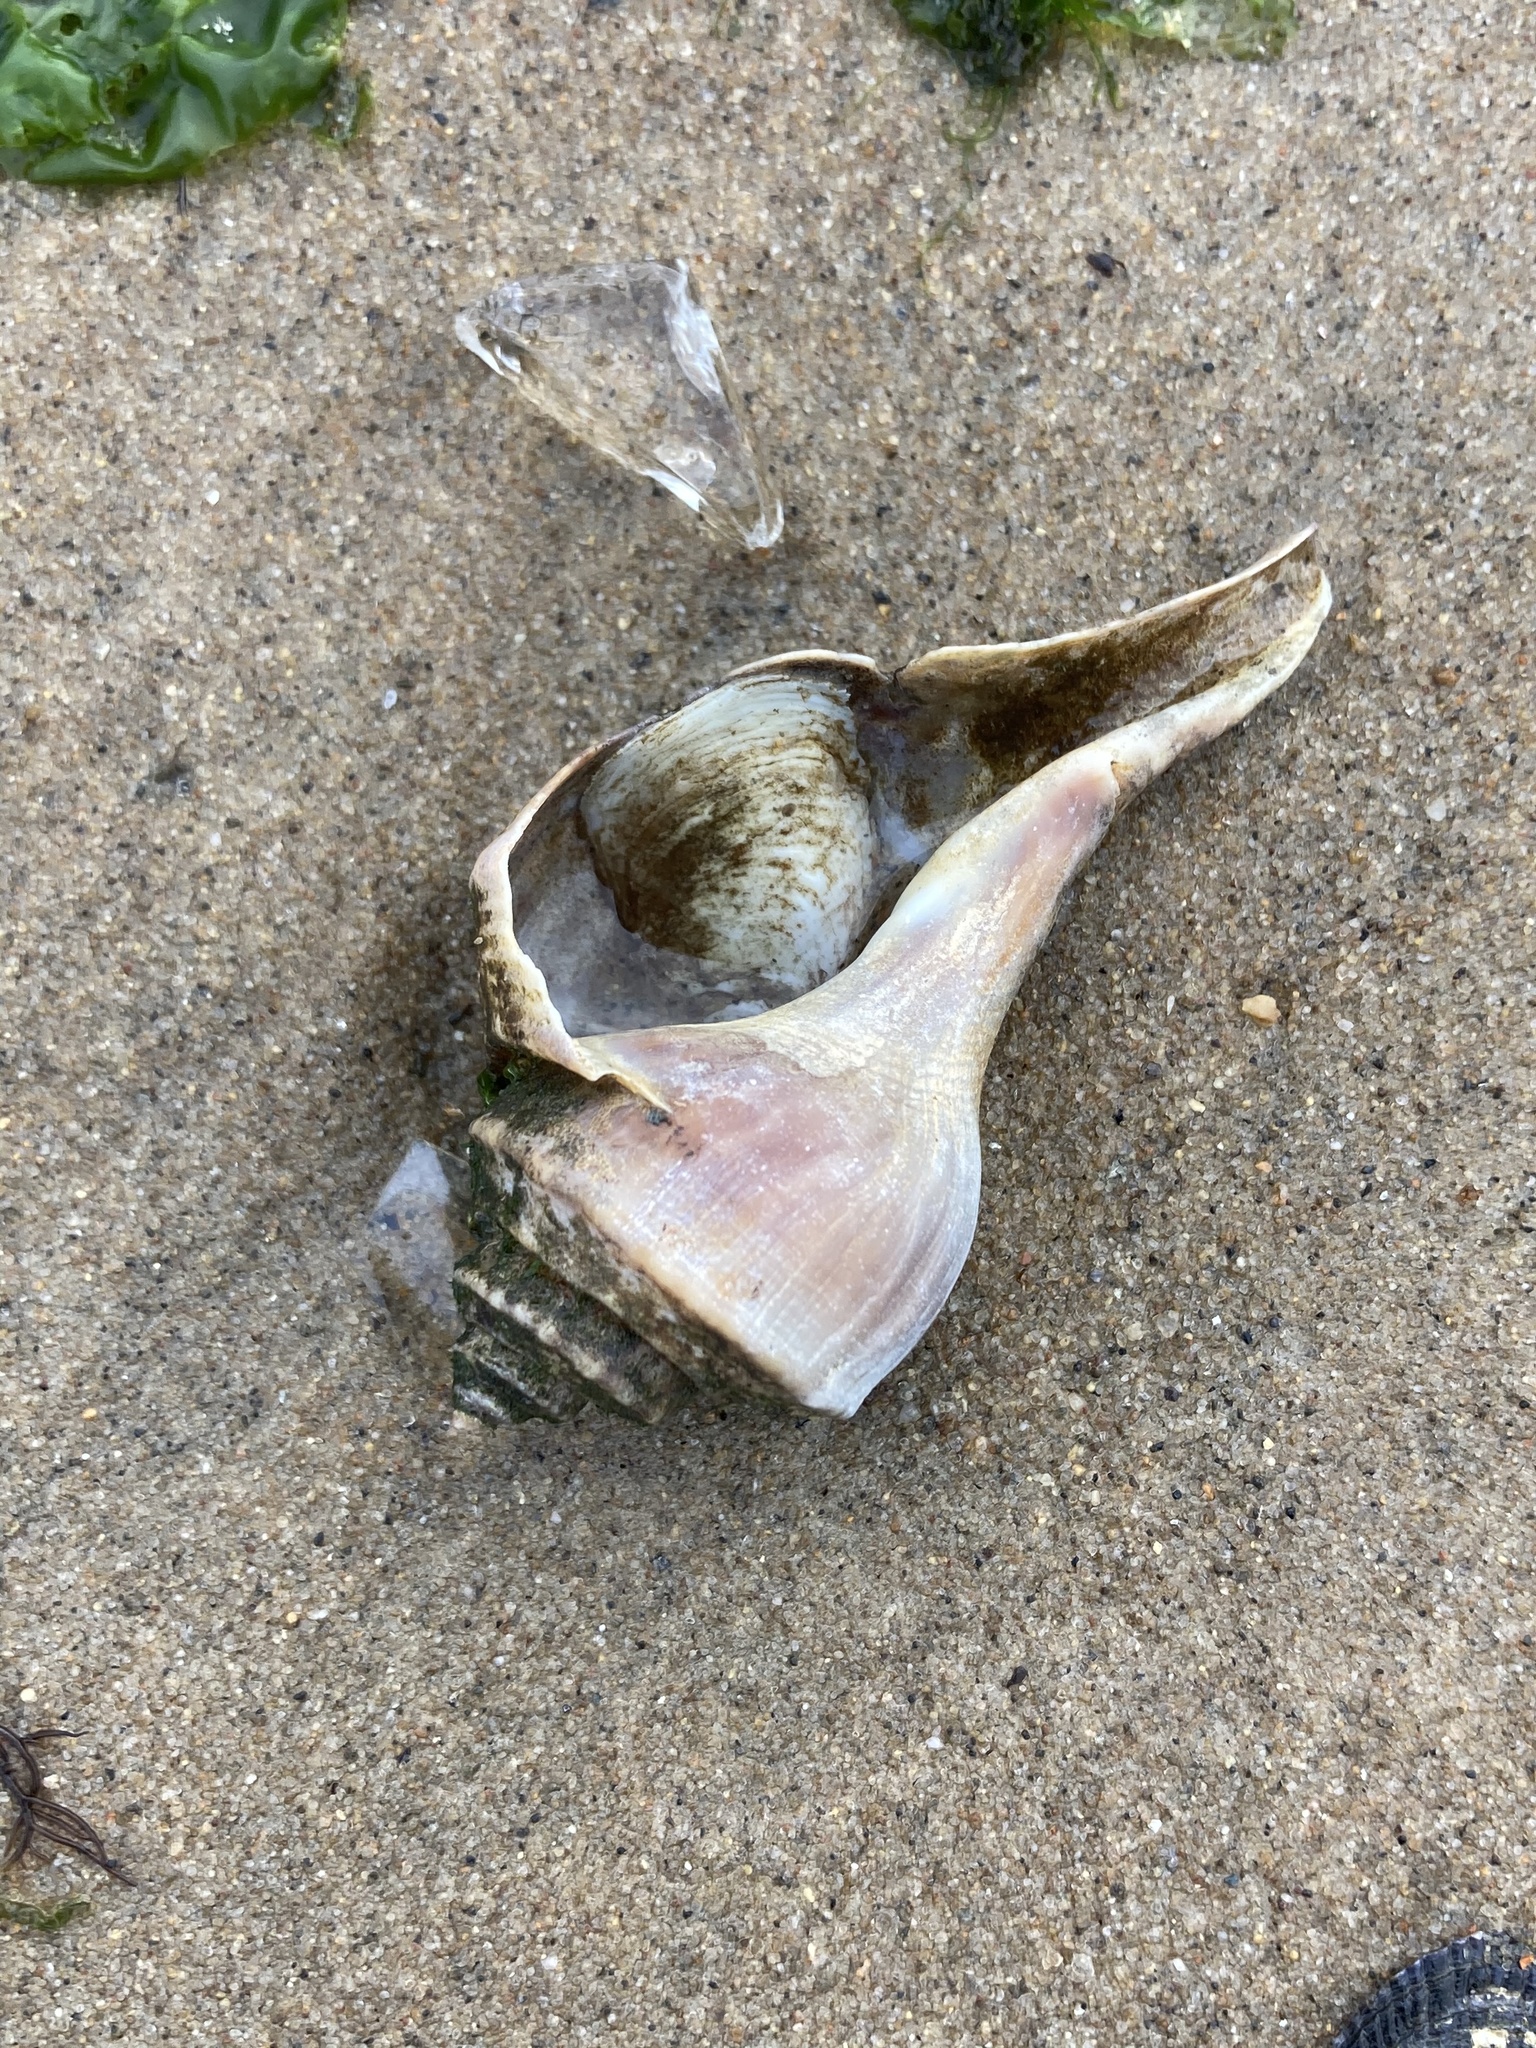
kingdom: Animalia
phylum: Mollusca
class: Gastropoda
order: Neogastropoda
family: Busyconidae
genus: Busycotypus
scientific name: Busycotypus canaliculatus
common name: Channeled whelk
